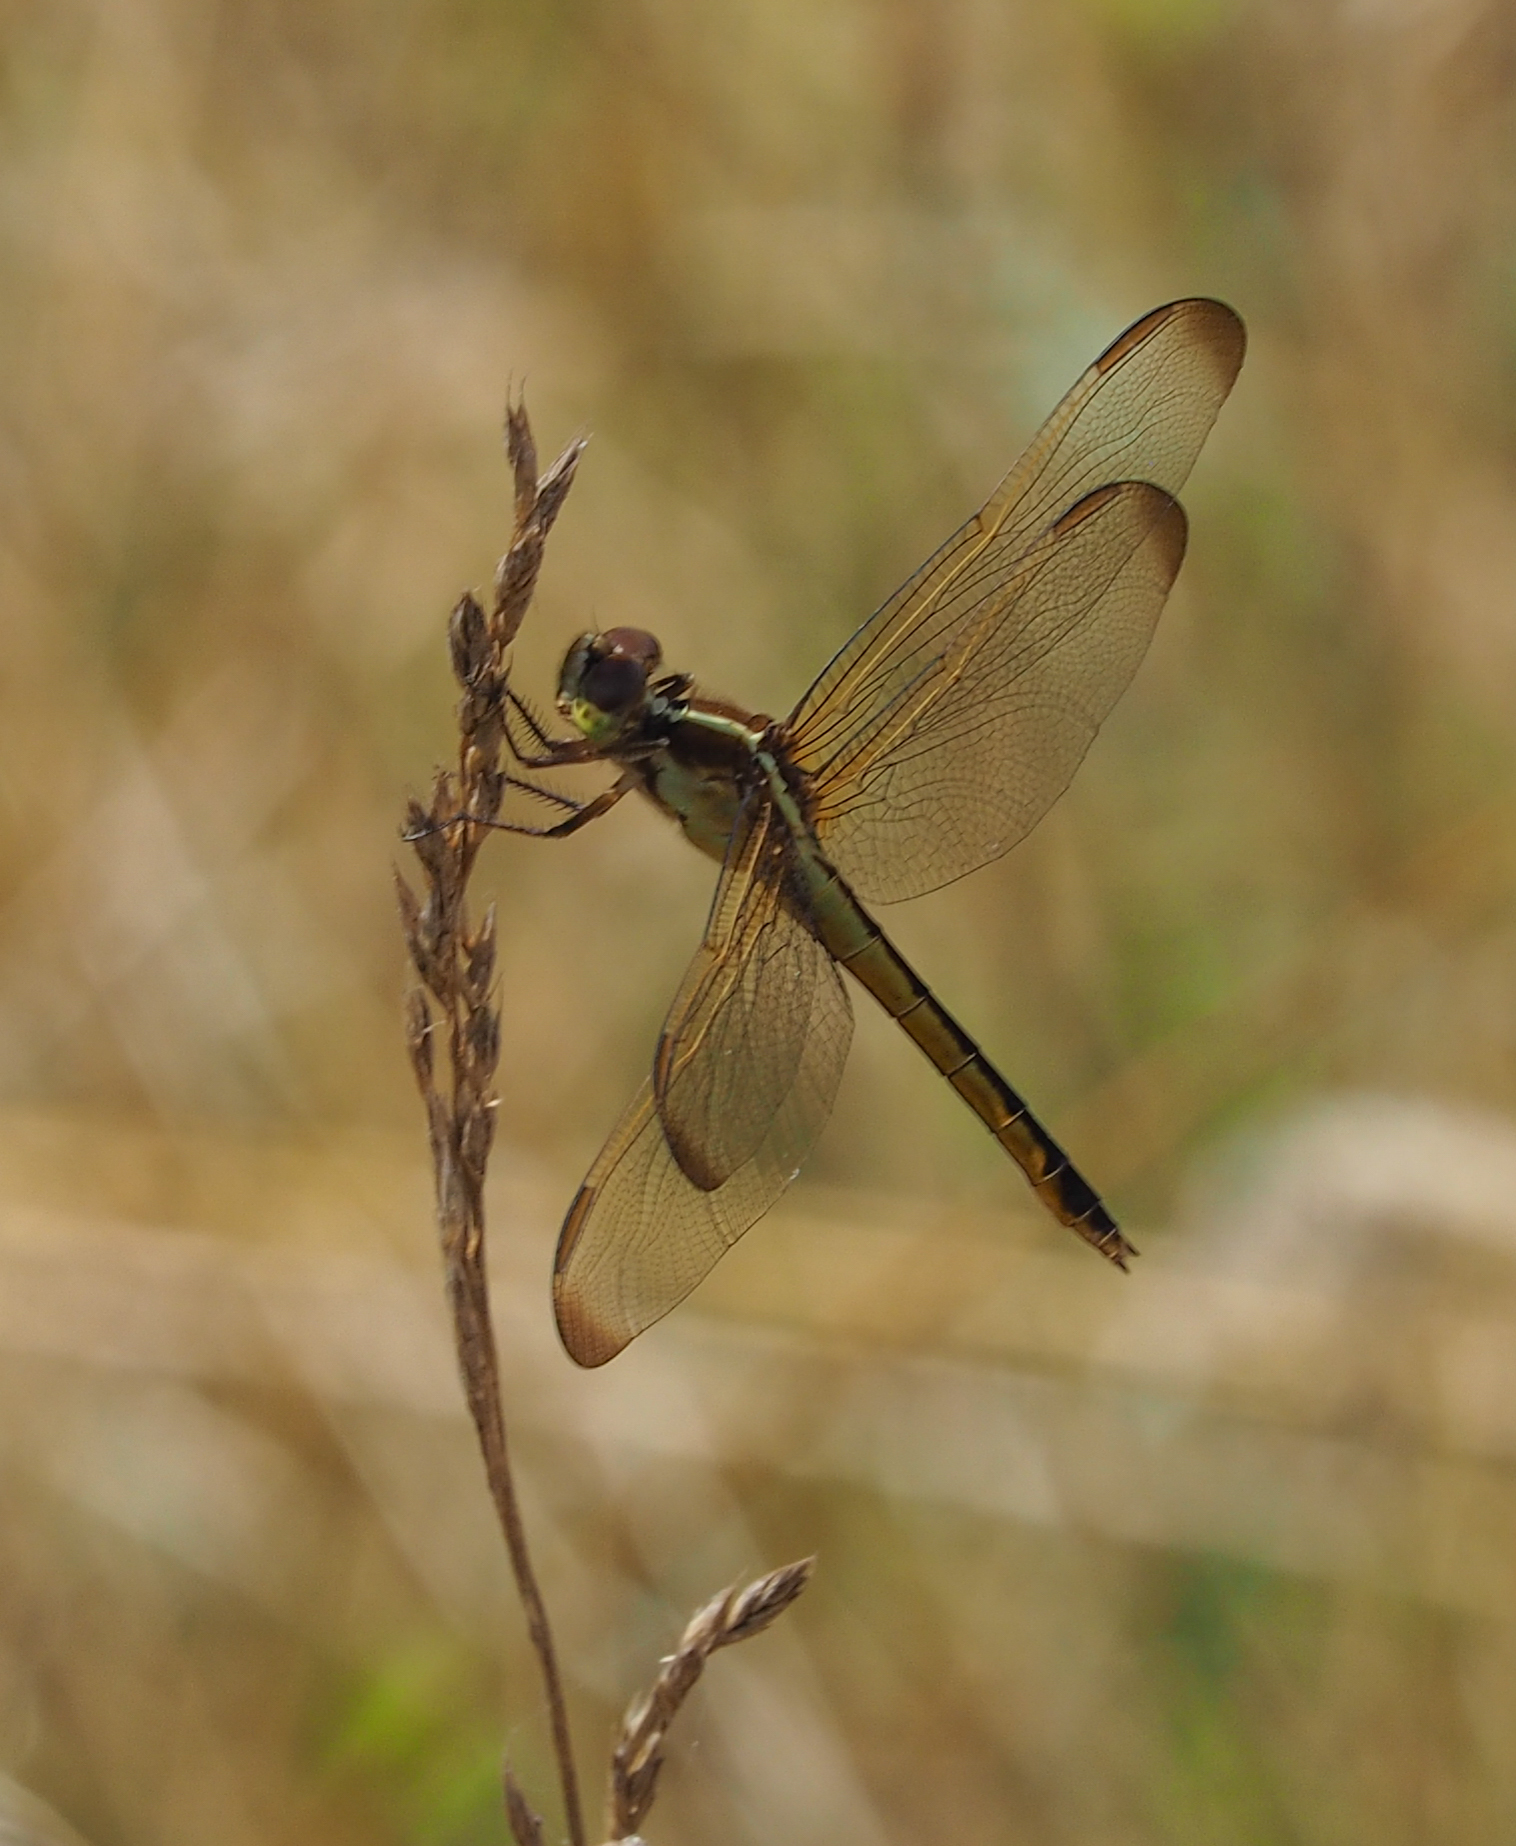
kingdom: Animalia
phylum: Arthropoda
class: Insecta
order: Odonata
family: Libellulidae
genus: Libellula
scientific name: Libellula needhami
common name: Needham's skimmer
